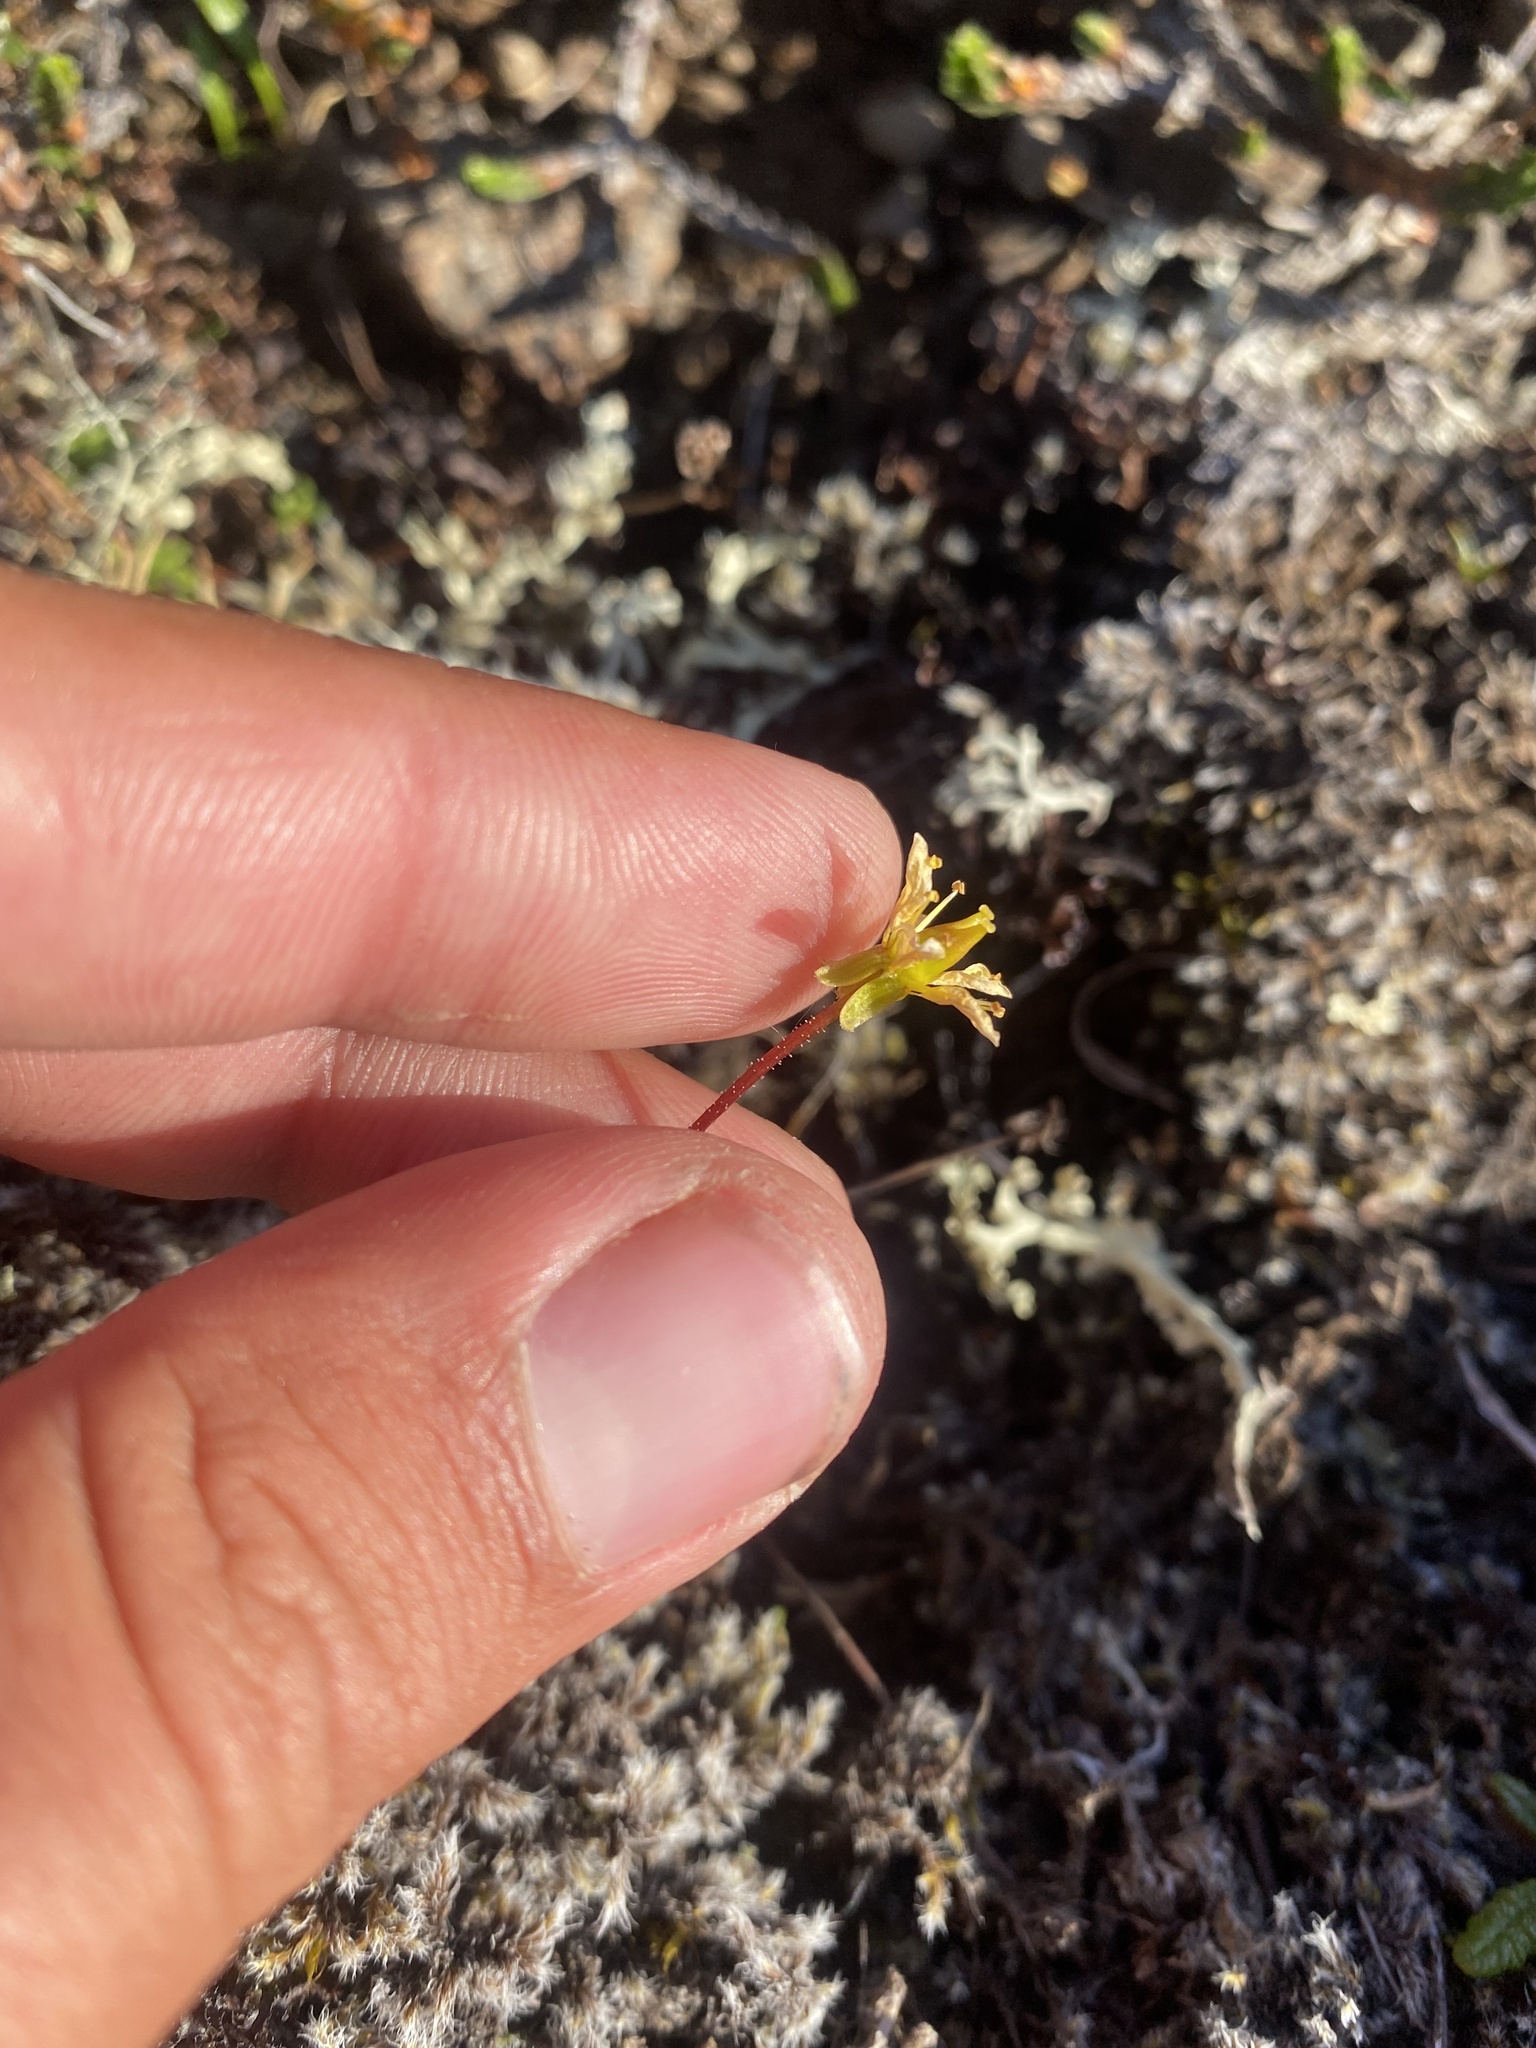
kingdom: Plantae
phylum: Tracheophyta
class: Magnoliopsida
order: Saxifragales
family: Saxifragaceae
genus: Saxifraga
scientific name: Saxifraga serpyllifolia
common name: Thyme-leaved saxifrage
